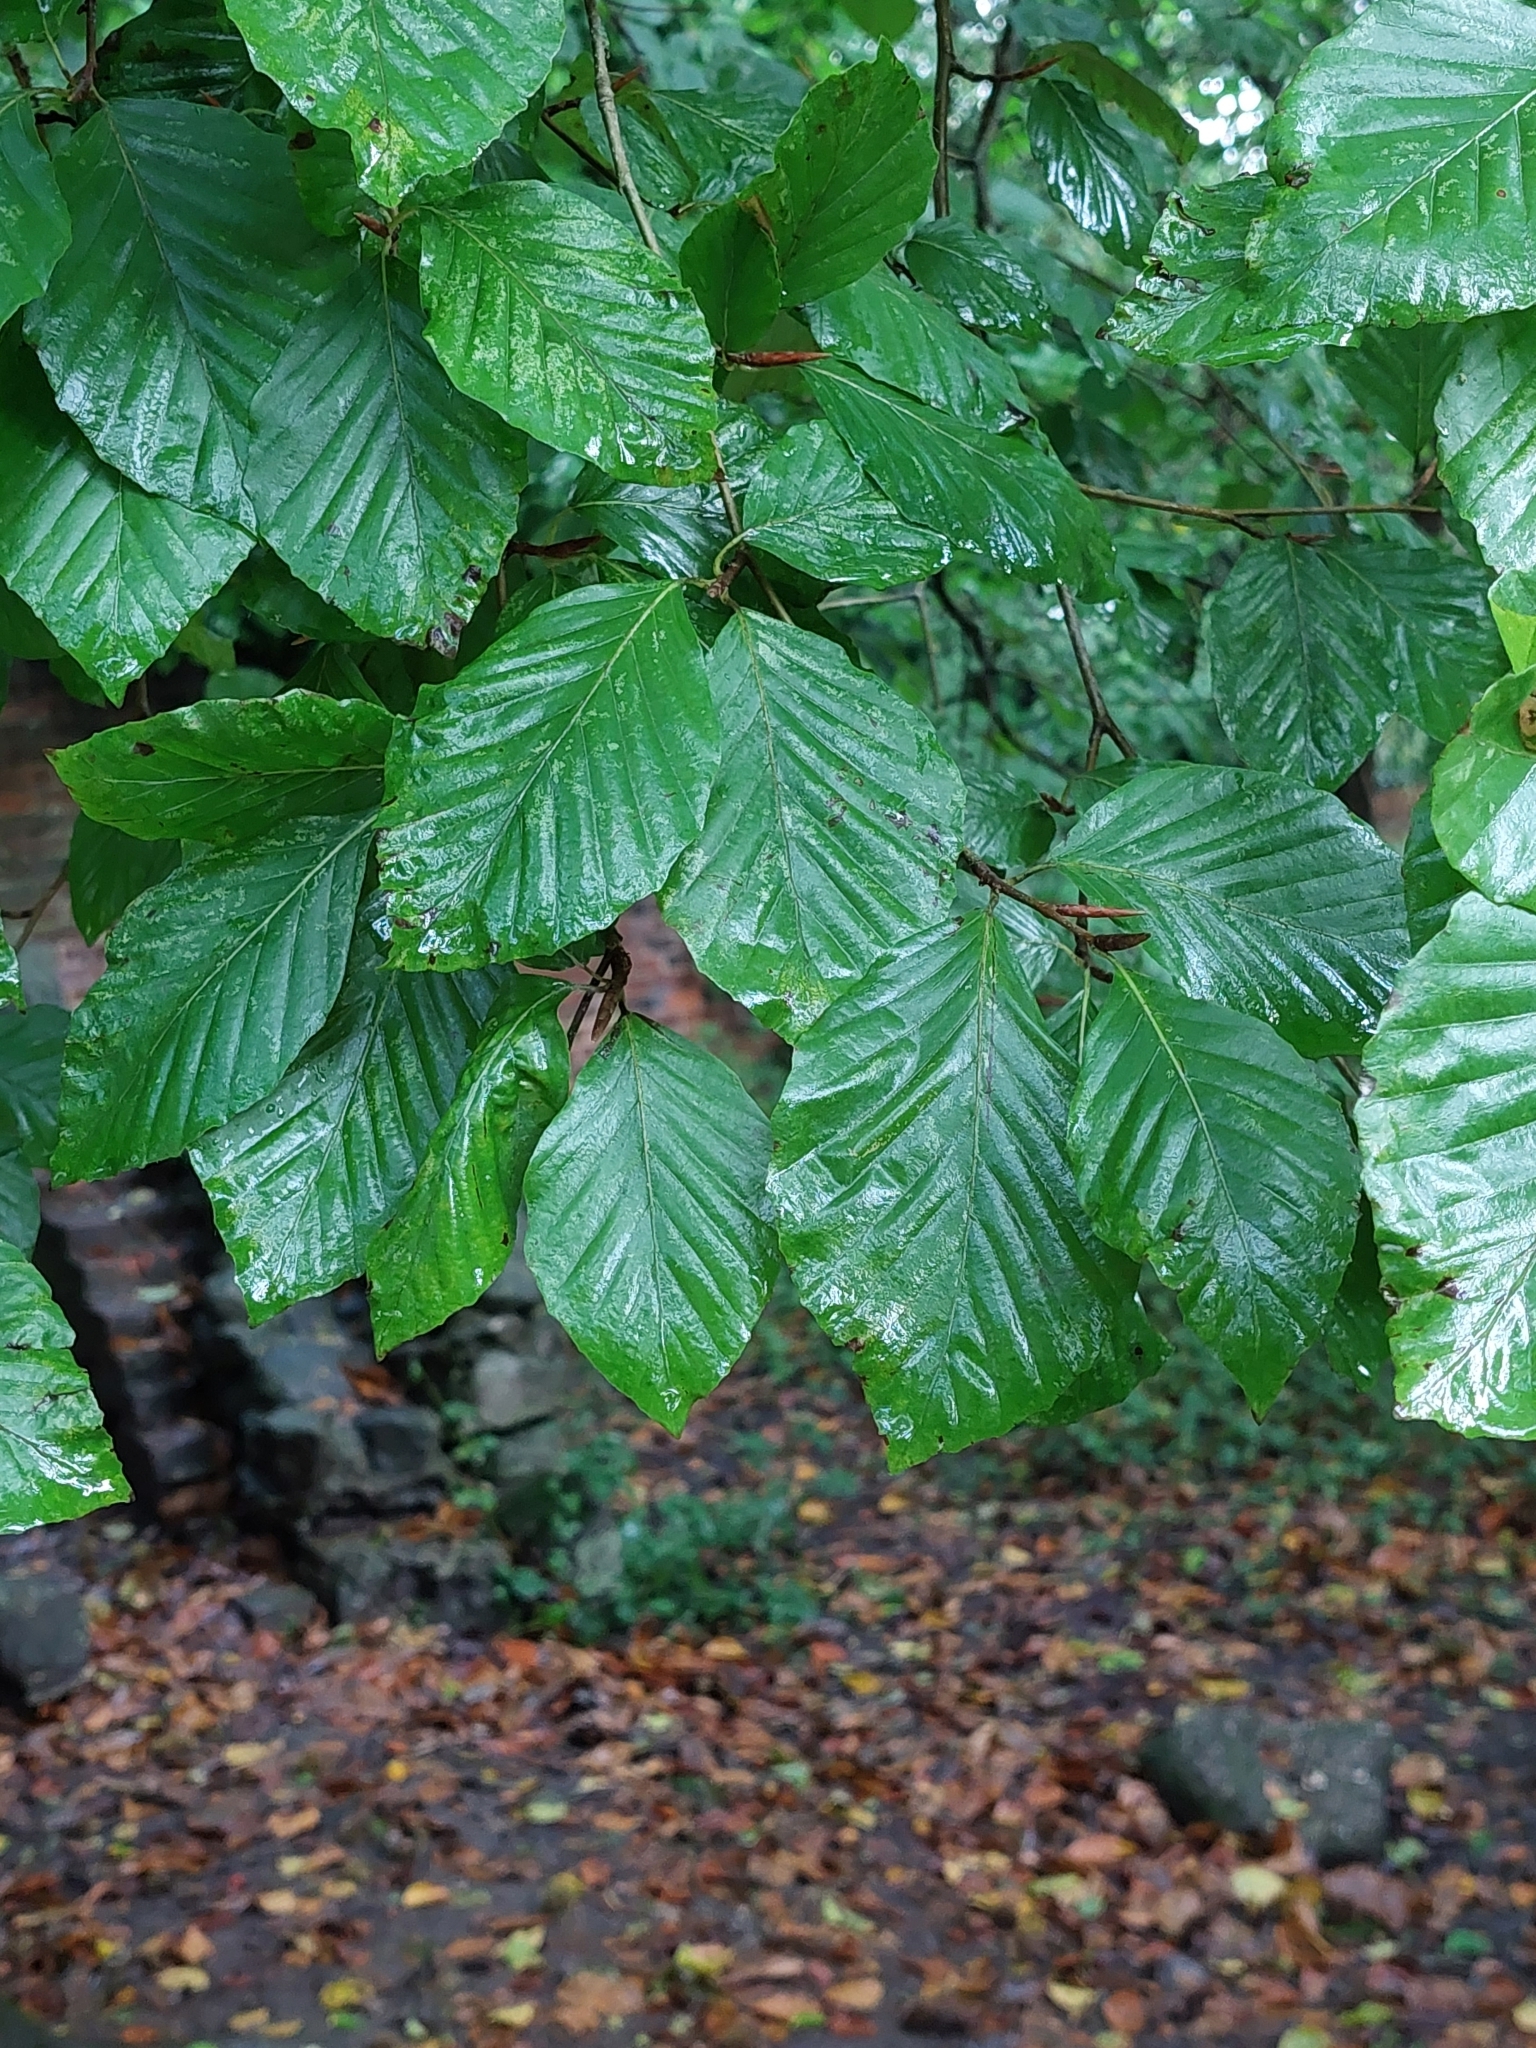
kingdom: Plantae
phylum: Tracheophyta
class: Magnoliopsida
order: Fagales
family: Fagaceae
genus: Fagus
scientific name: Fagus sylvatica
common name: Beech
